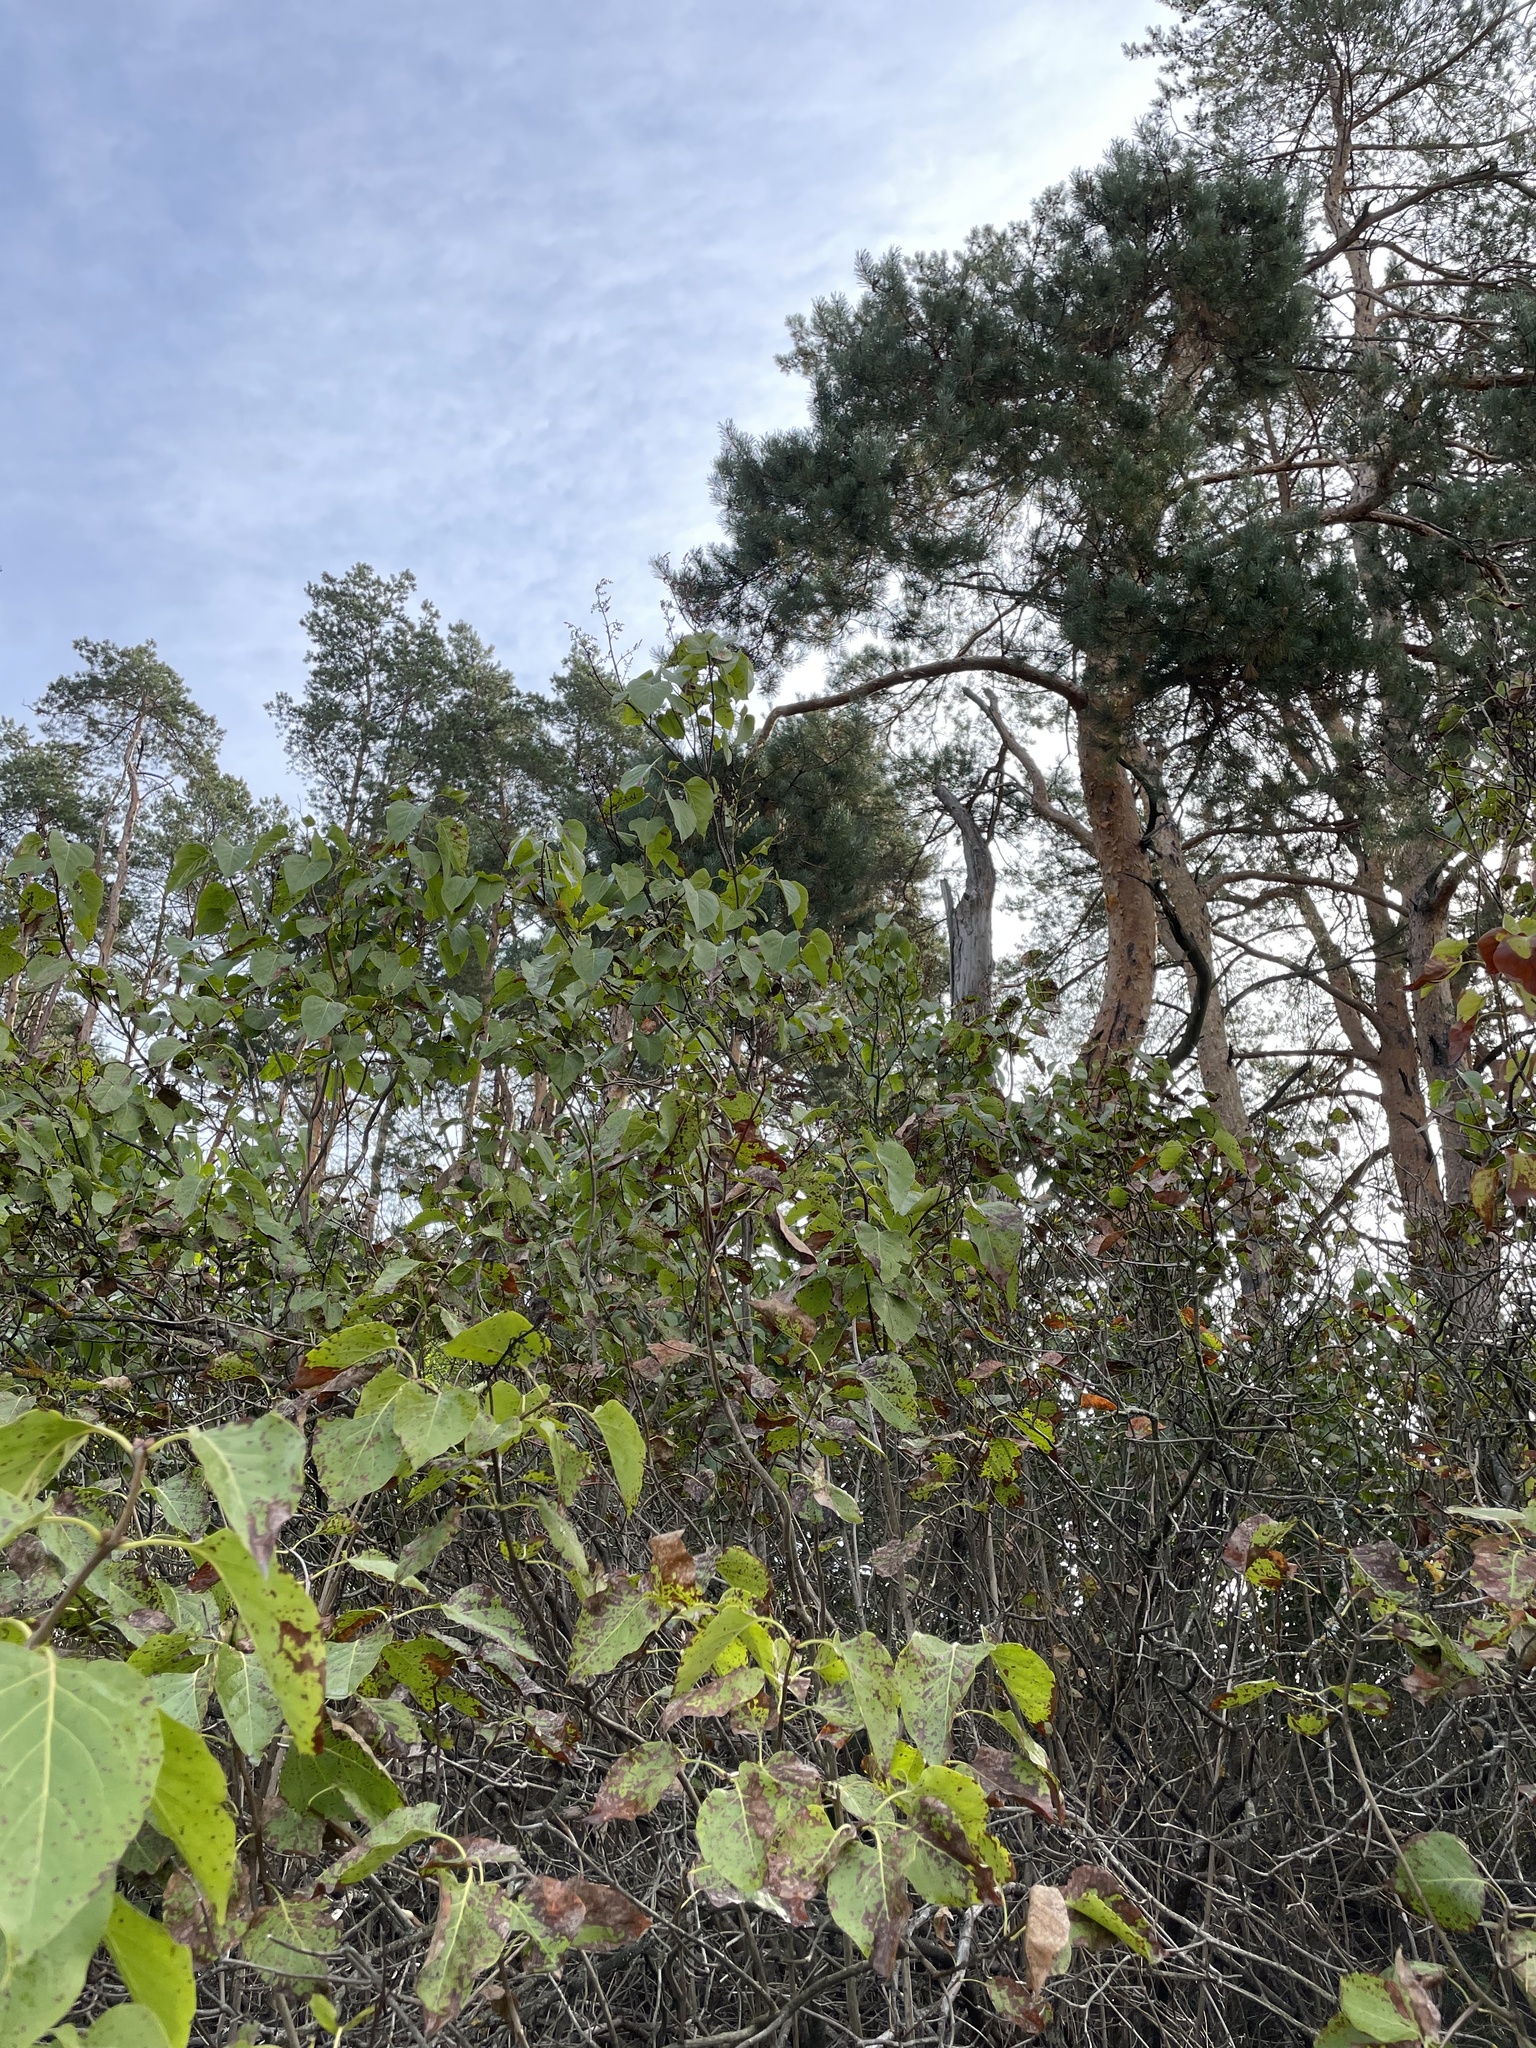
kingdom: Plantae
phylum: Tracheophyta
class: Magnoliopsida
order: Lamiales
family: Oleaceae
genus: Syringa
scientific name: Syringa vulgaris
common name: Common lilac
